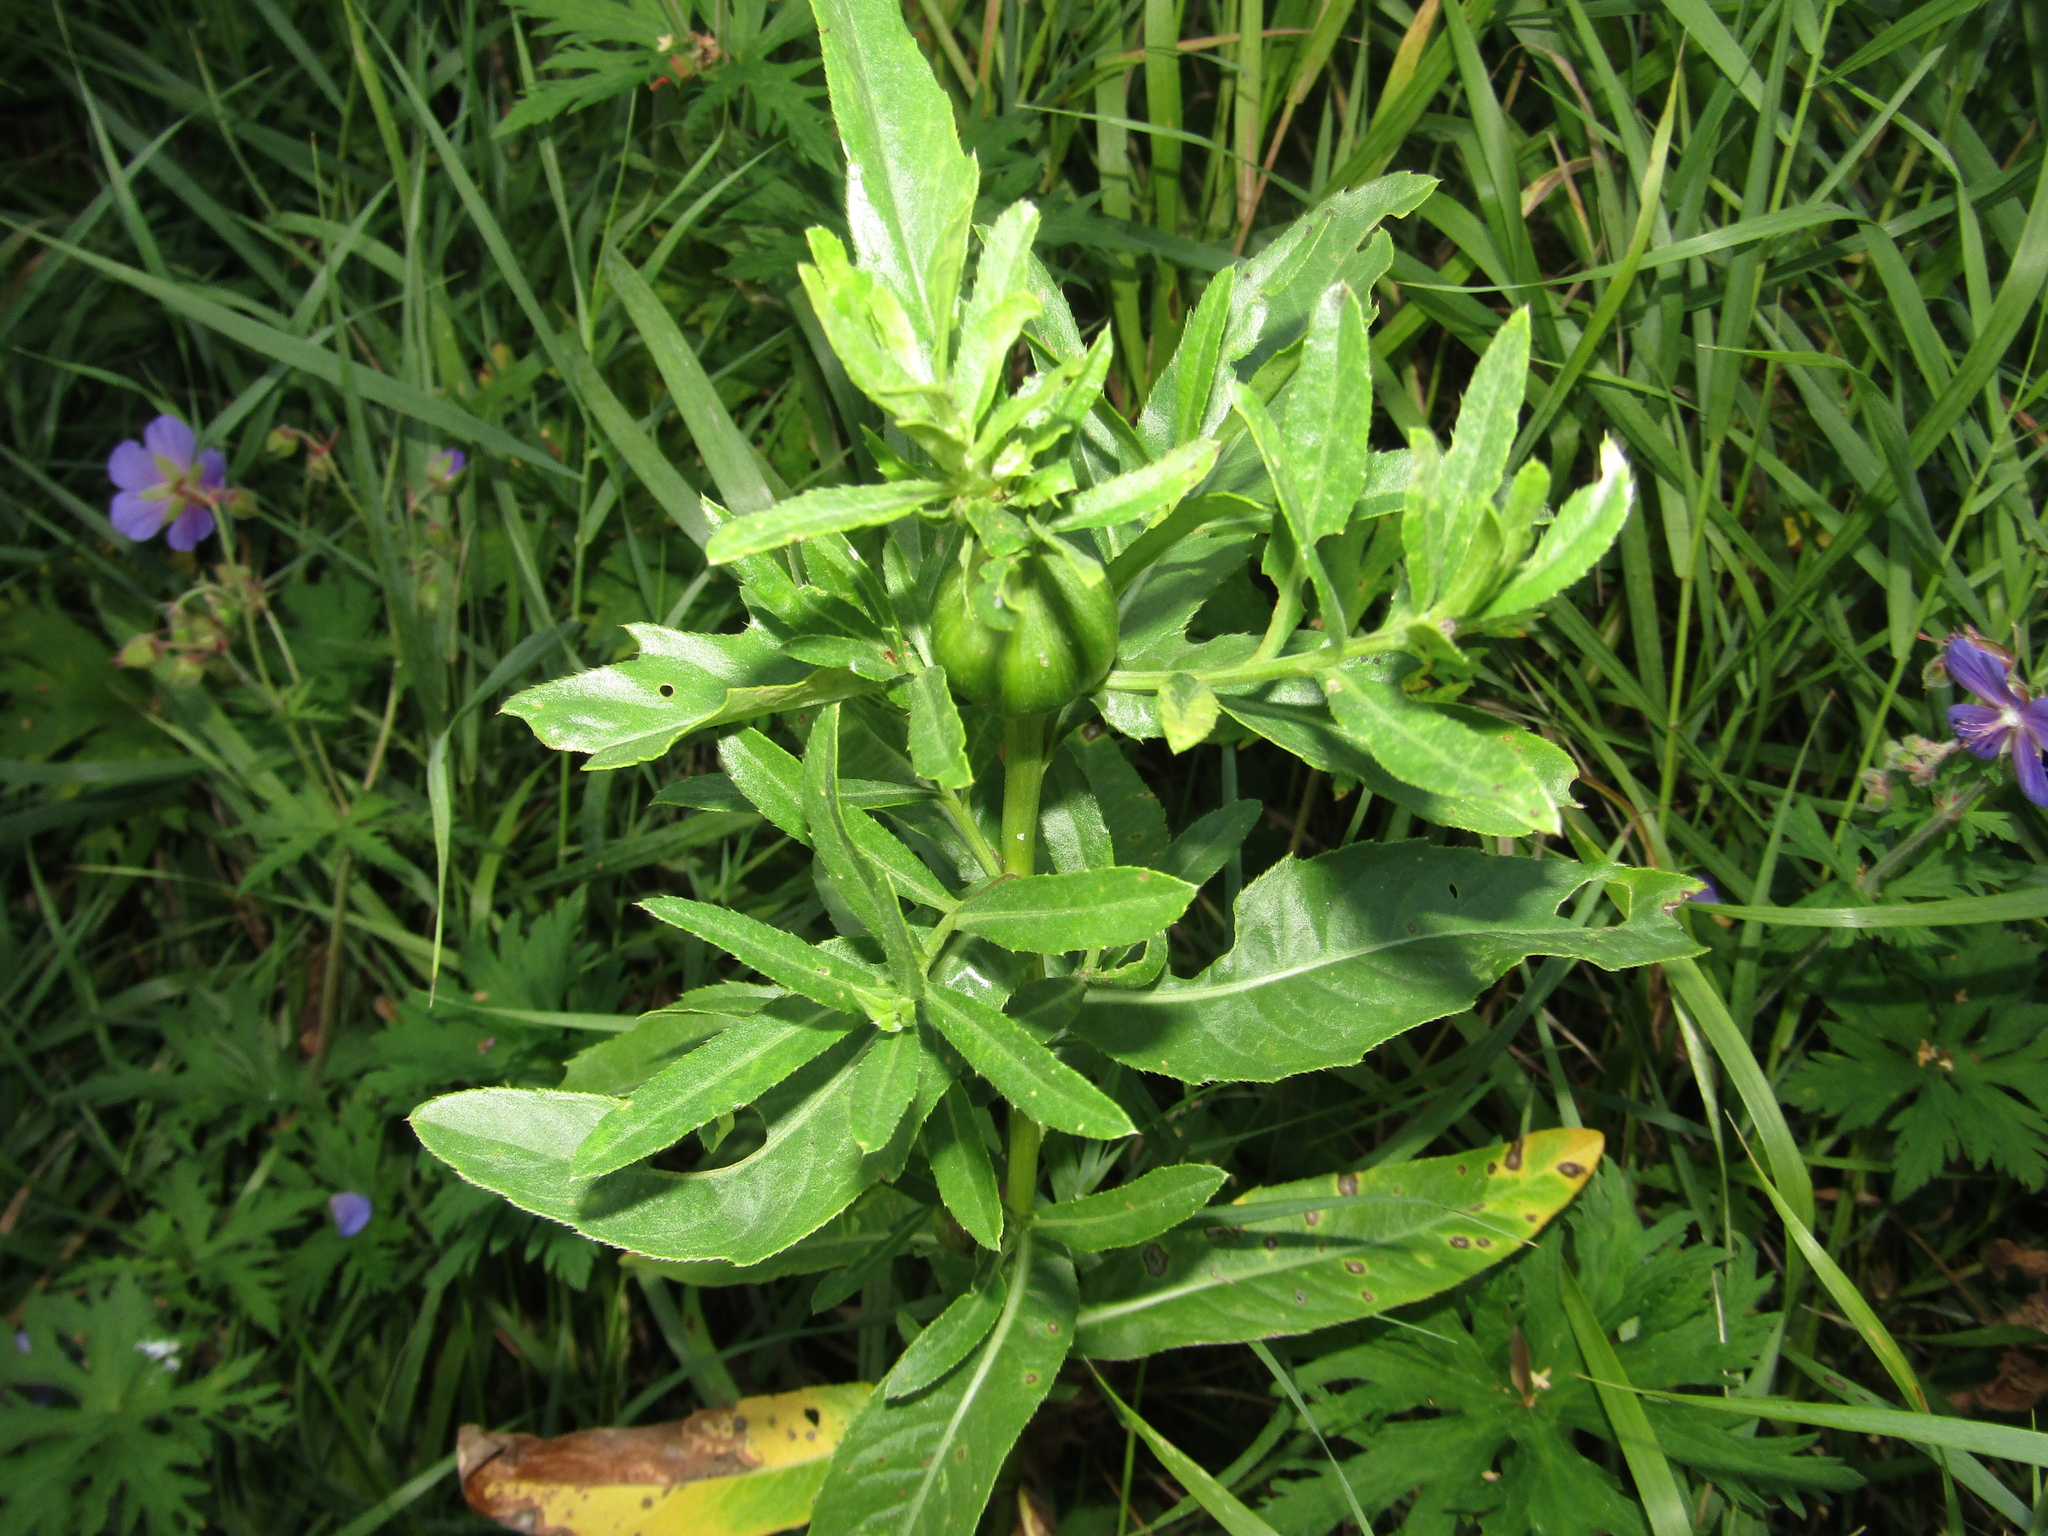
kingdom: Plantae
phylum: Tracheophyta
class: Magnoliopsida
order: Asterales
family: Asteraceae
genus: Cirsium
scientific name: Cirsium arvense
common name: Creeping thistle
